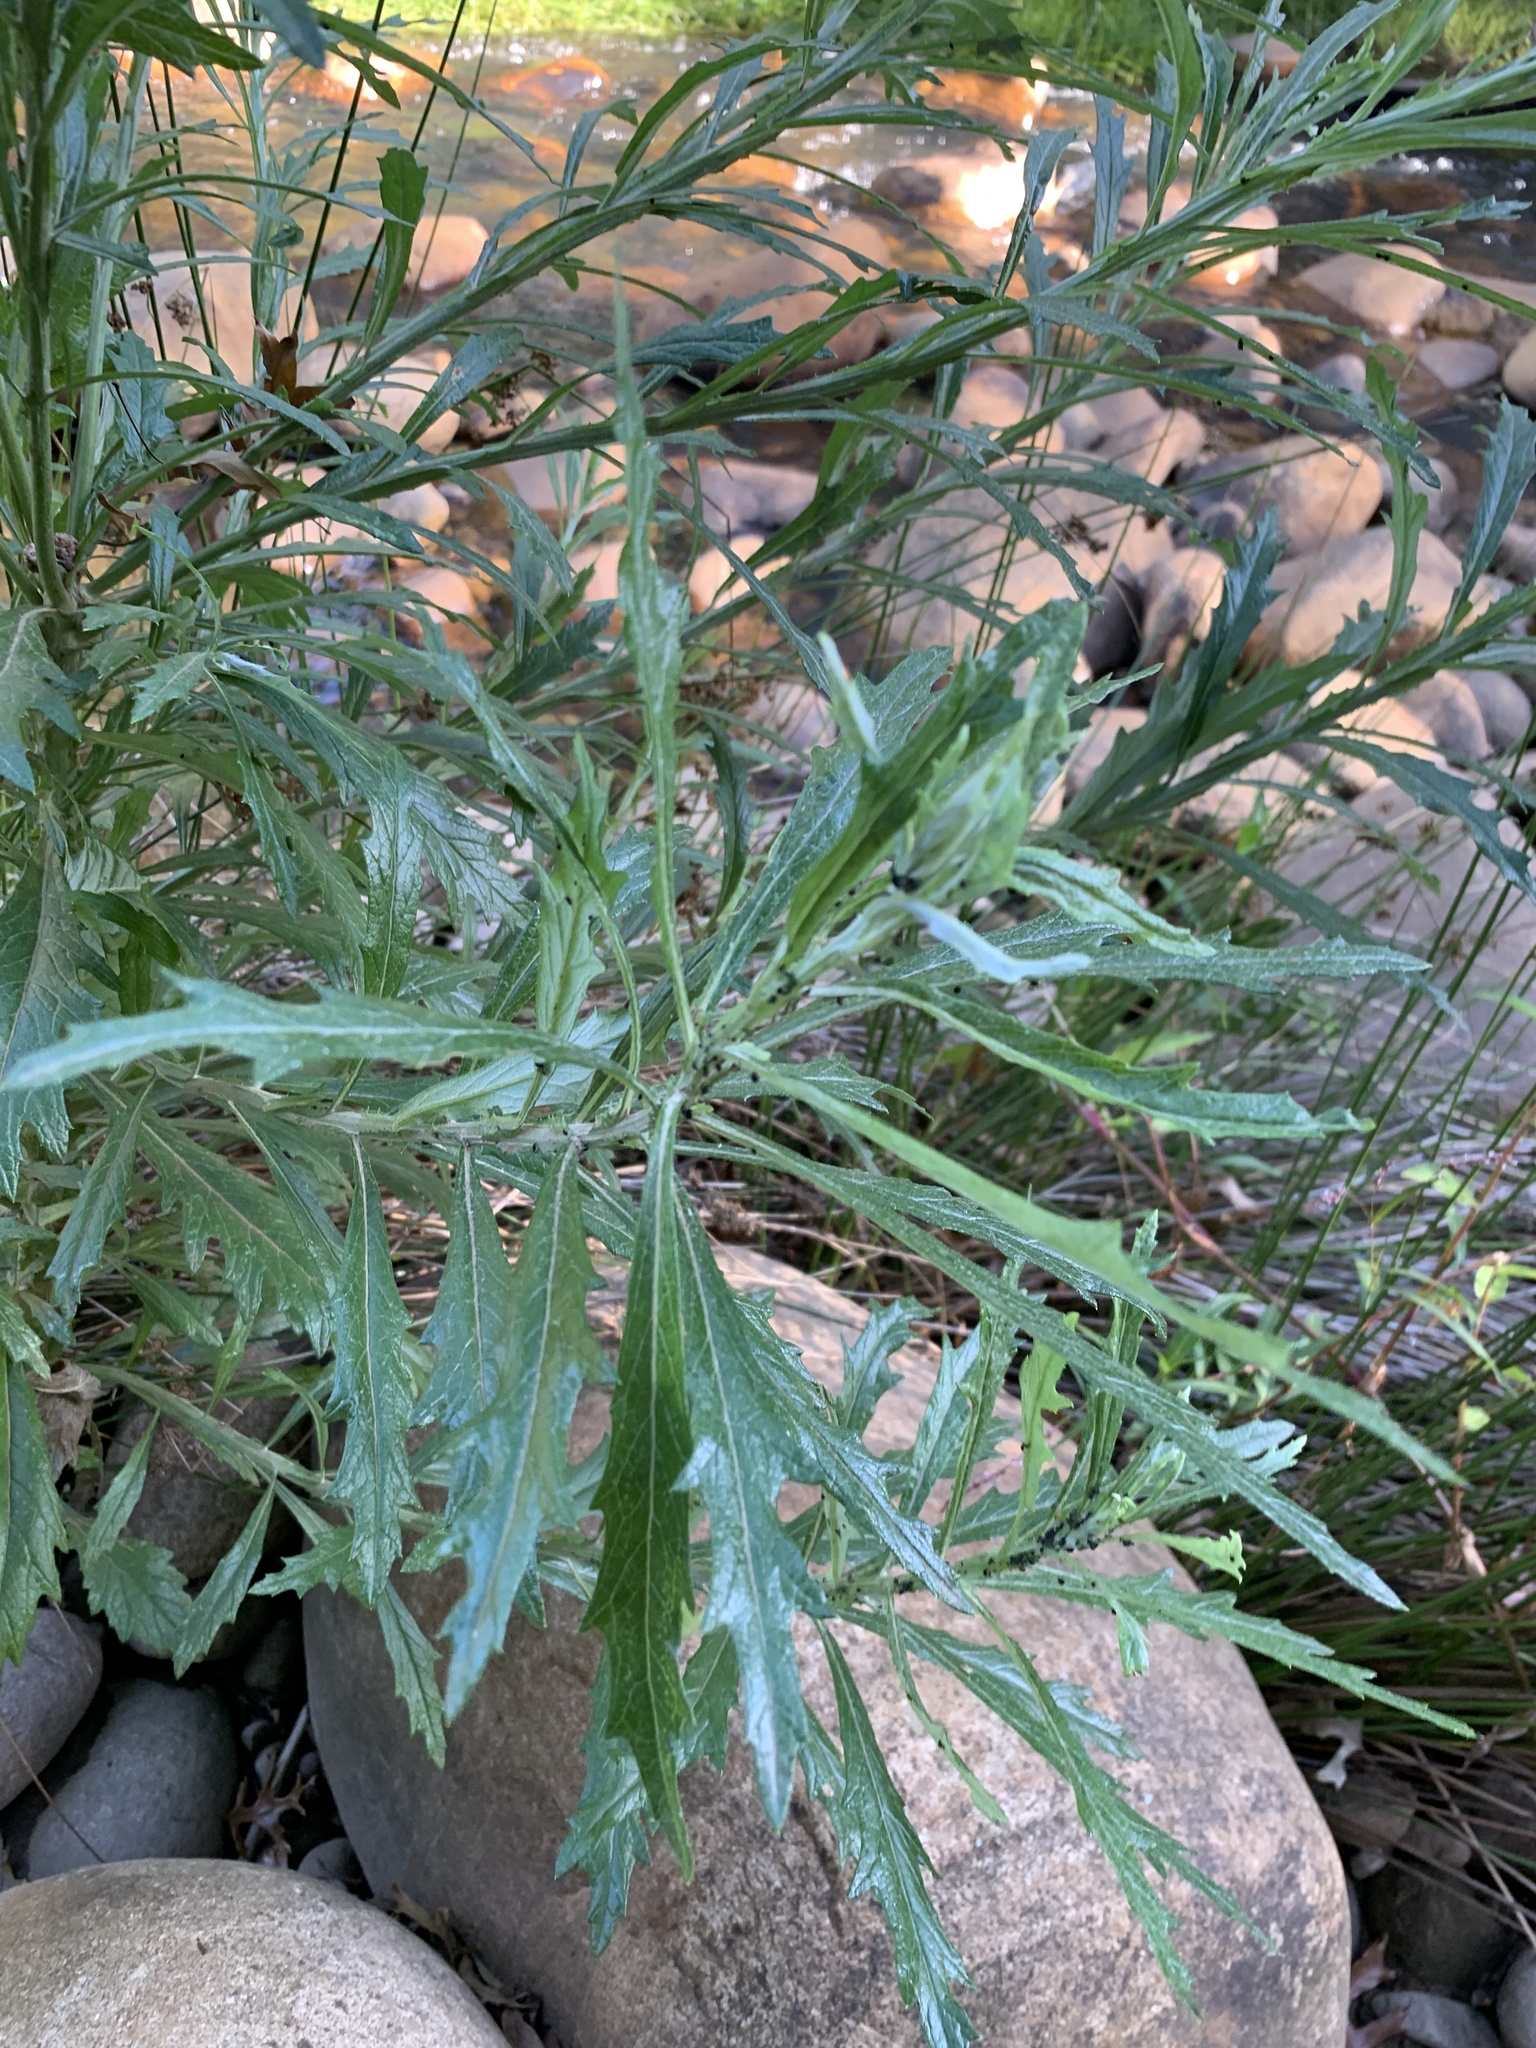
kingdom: Plantae
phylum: Tracheophyta
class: Magnoliopsida
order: Asterales
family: Asteraceae
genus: Senecio
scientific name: Senecio pterophorus
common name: Shoddy ragwort
